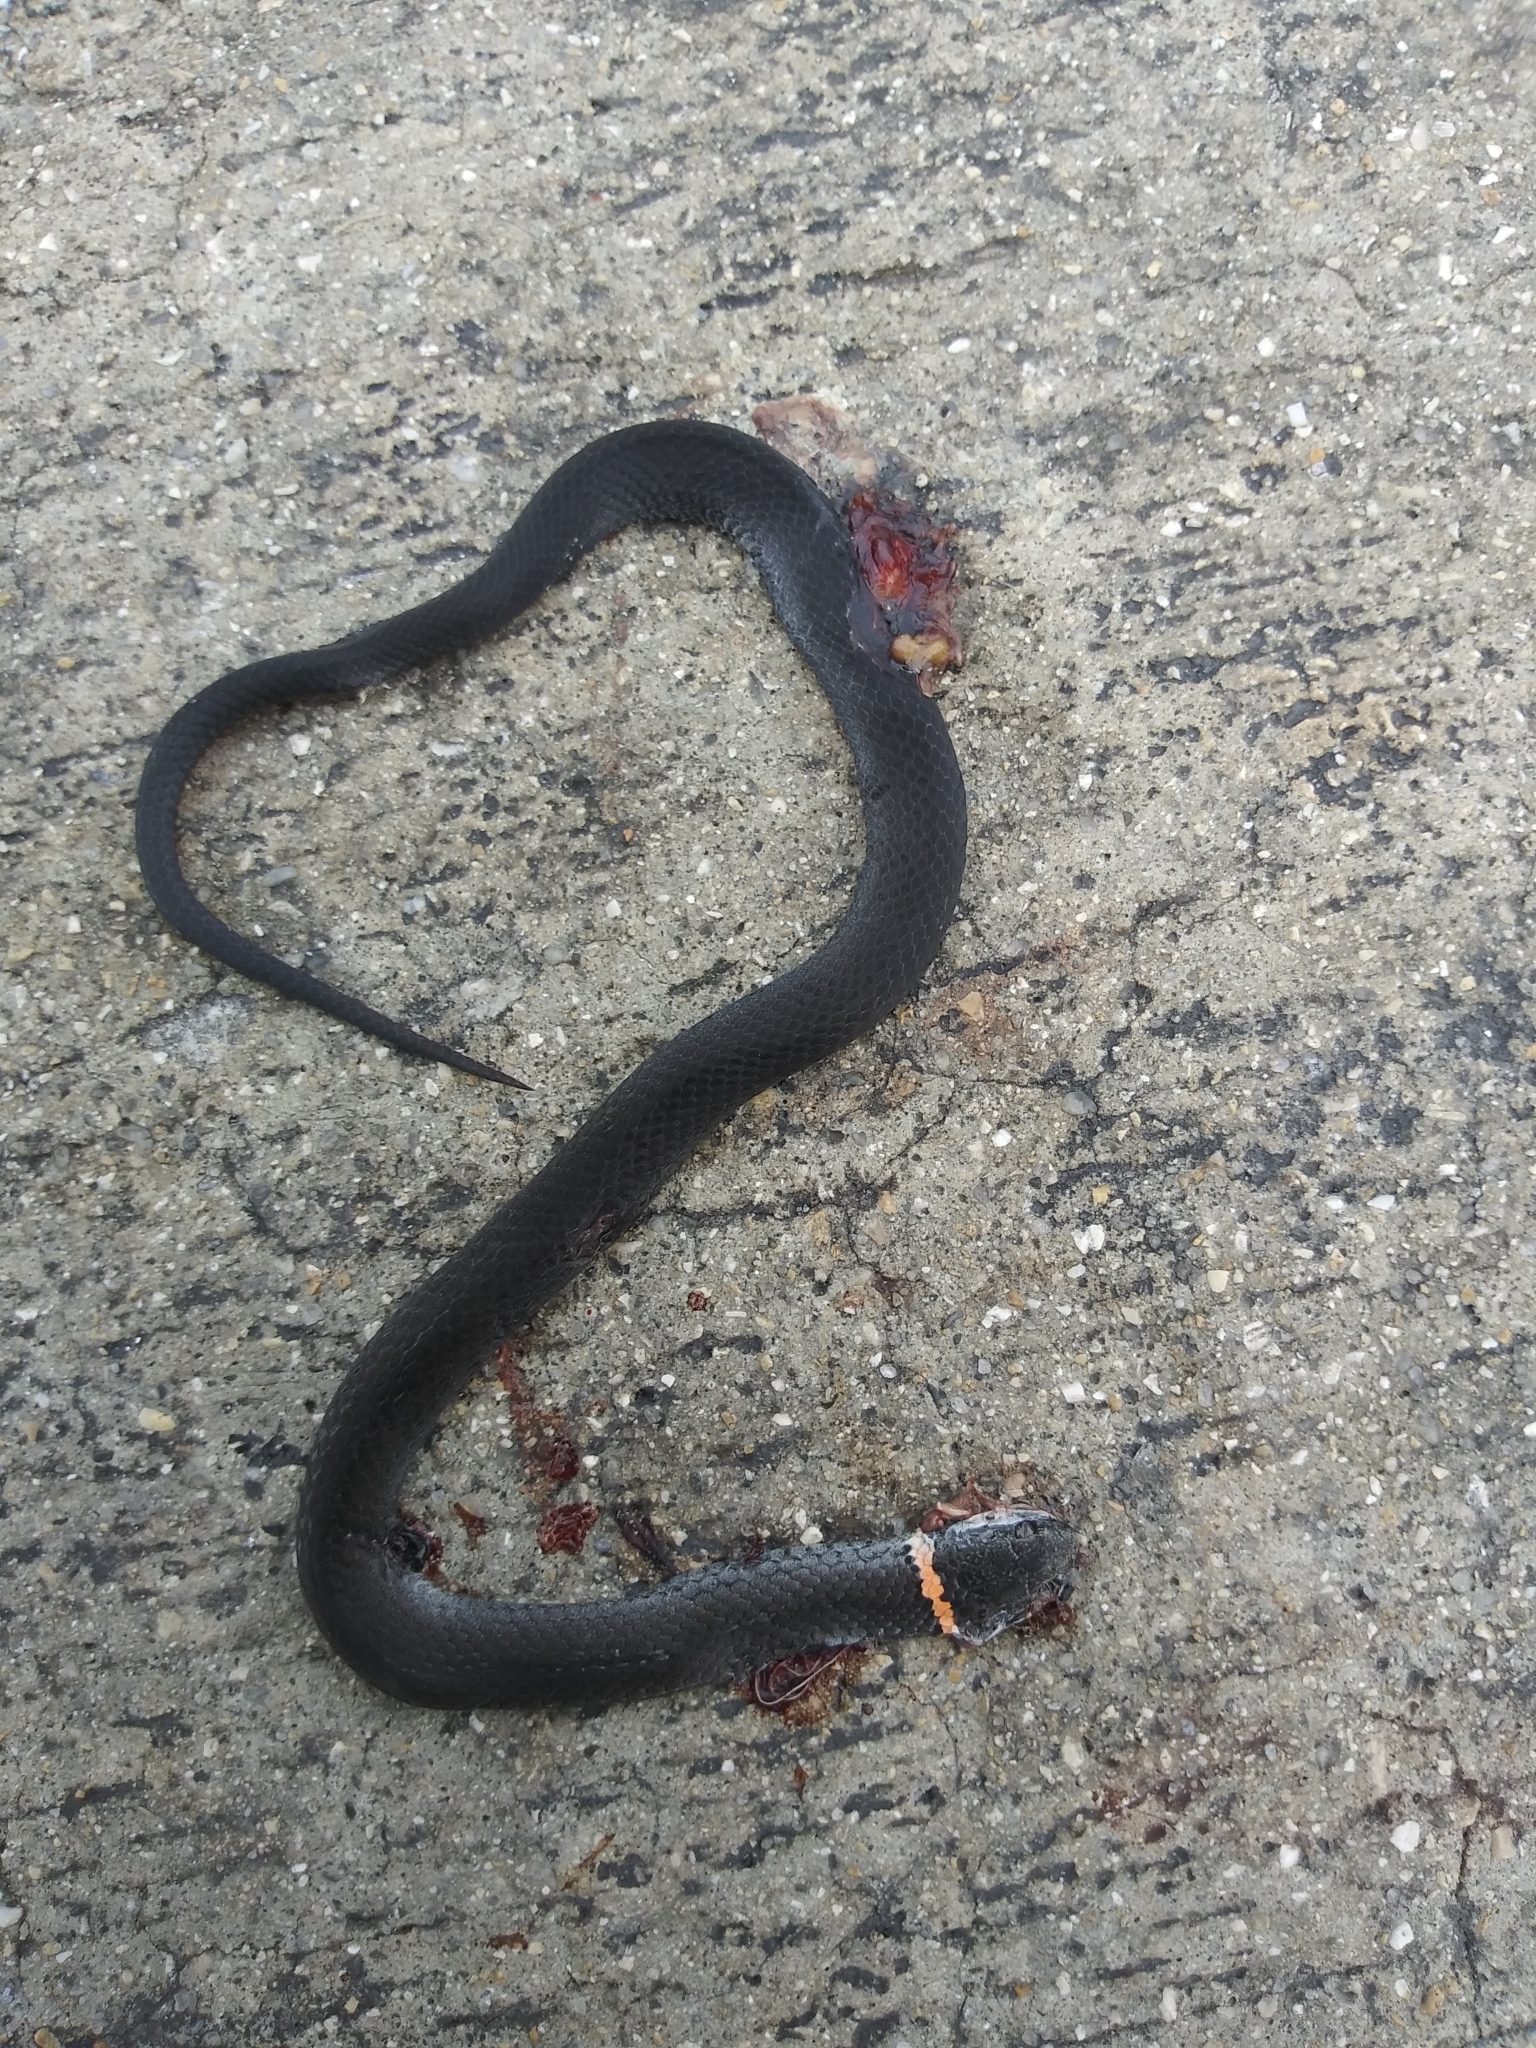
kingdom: Animalia
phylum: Chordata
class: Squamata
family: Colubridae
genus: Diadophis
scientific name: Diadophis punctatus
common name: Ringneck snake
